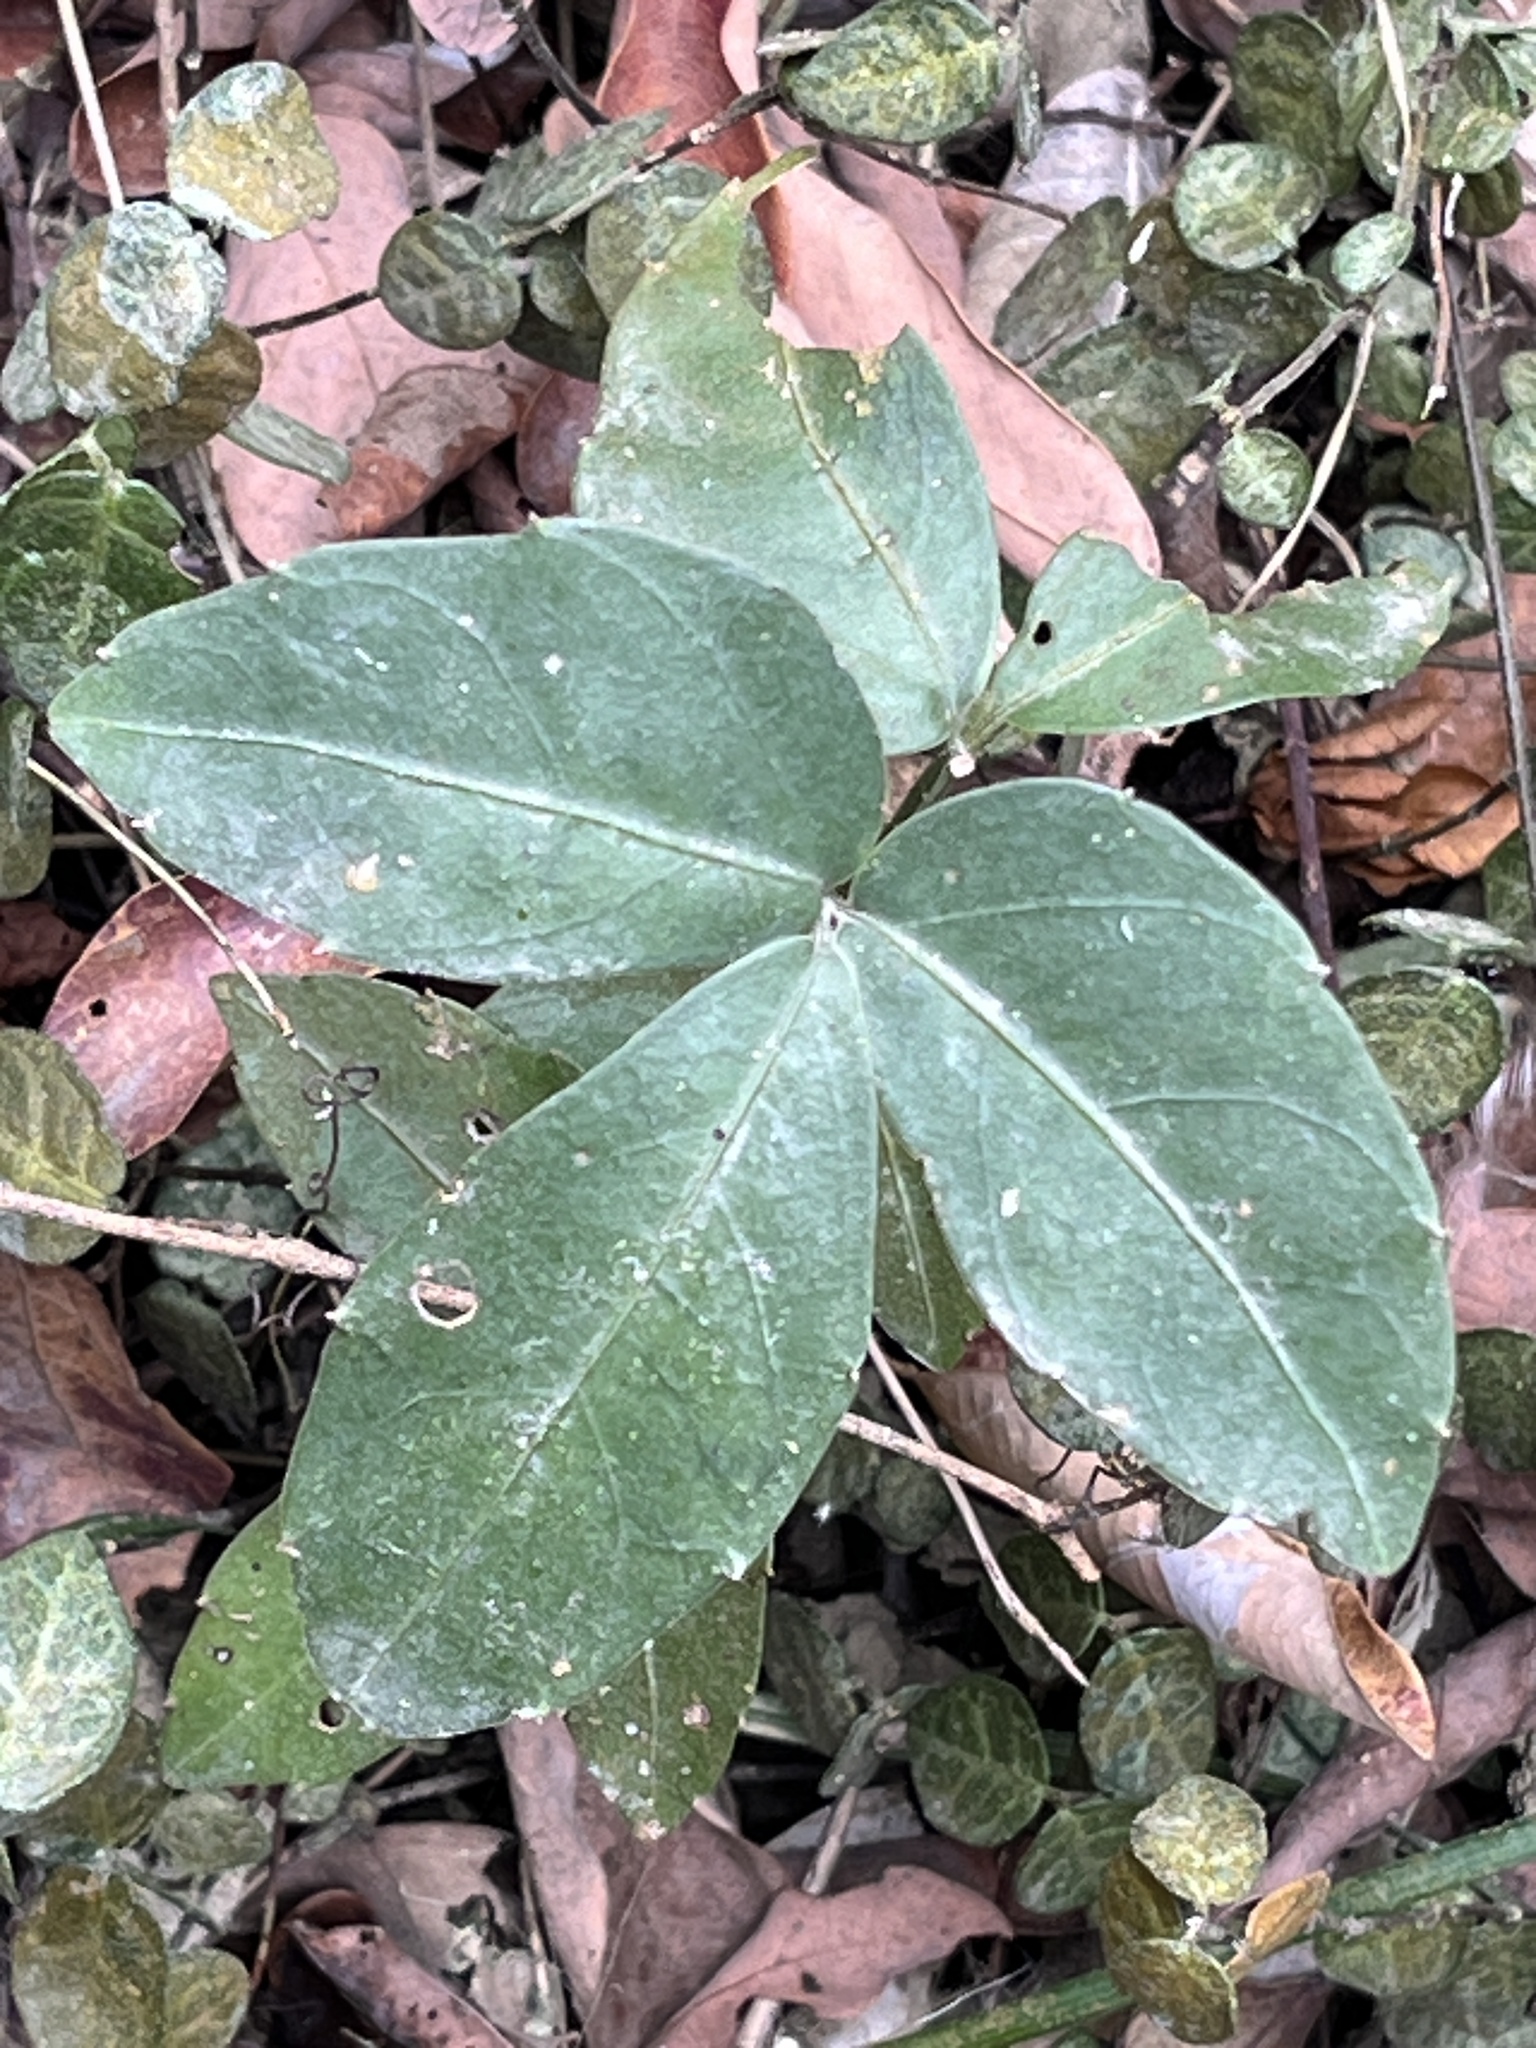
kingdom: Plantae
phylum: Tracheophyta
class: Magnoliopsida
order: Vitales
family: Vitaceae
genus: Tetrastigma
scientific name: Tetrastigma formosanum
